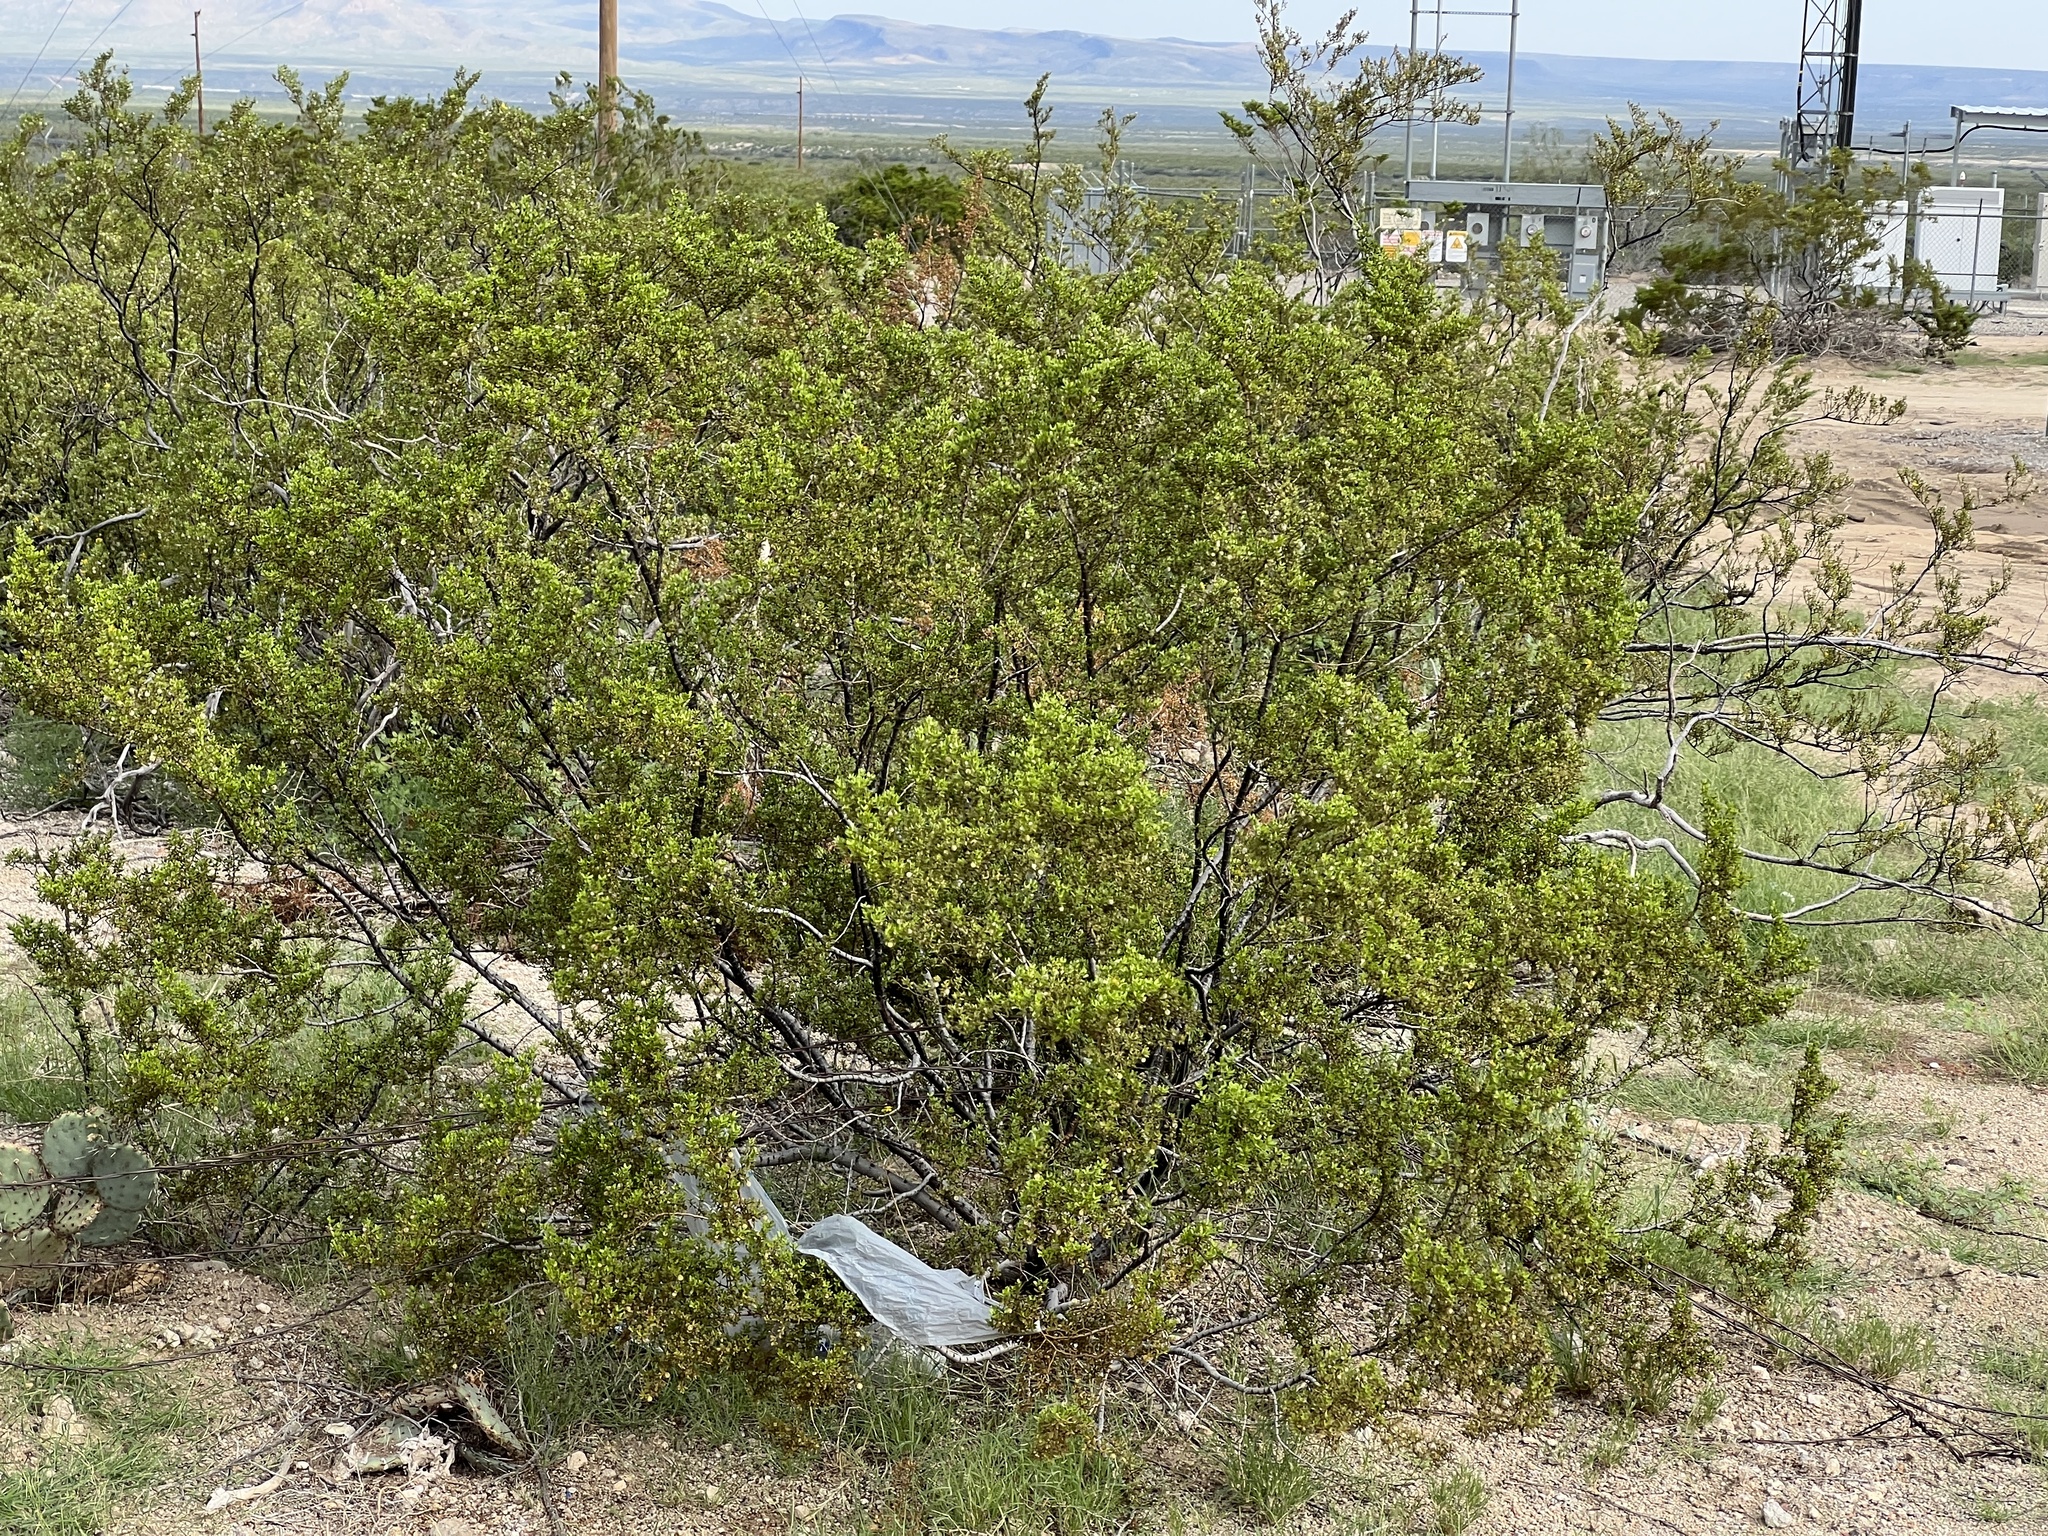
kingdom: Plantae
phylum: Tracheophyta
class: Magnoliopsida
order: Zygophyllales
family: Zygophyllaceae
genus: Larrea
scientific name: Larrea tridentata
